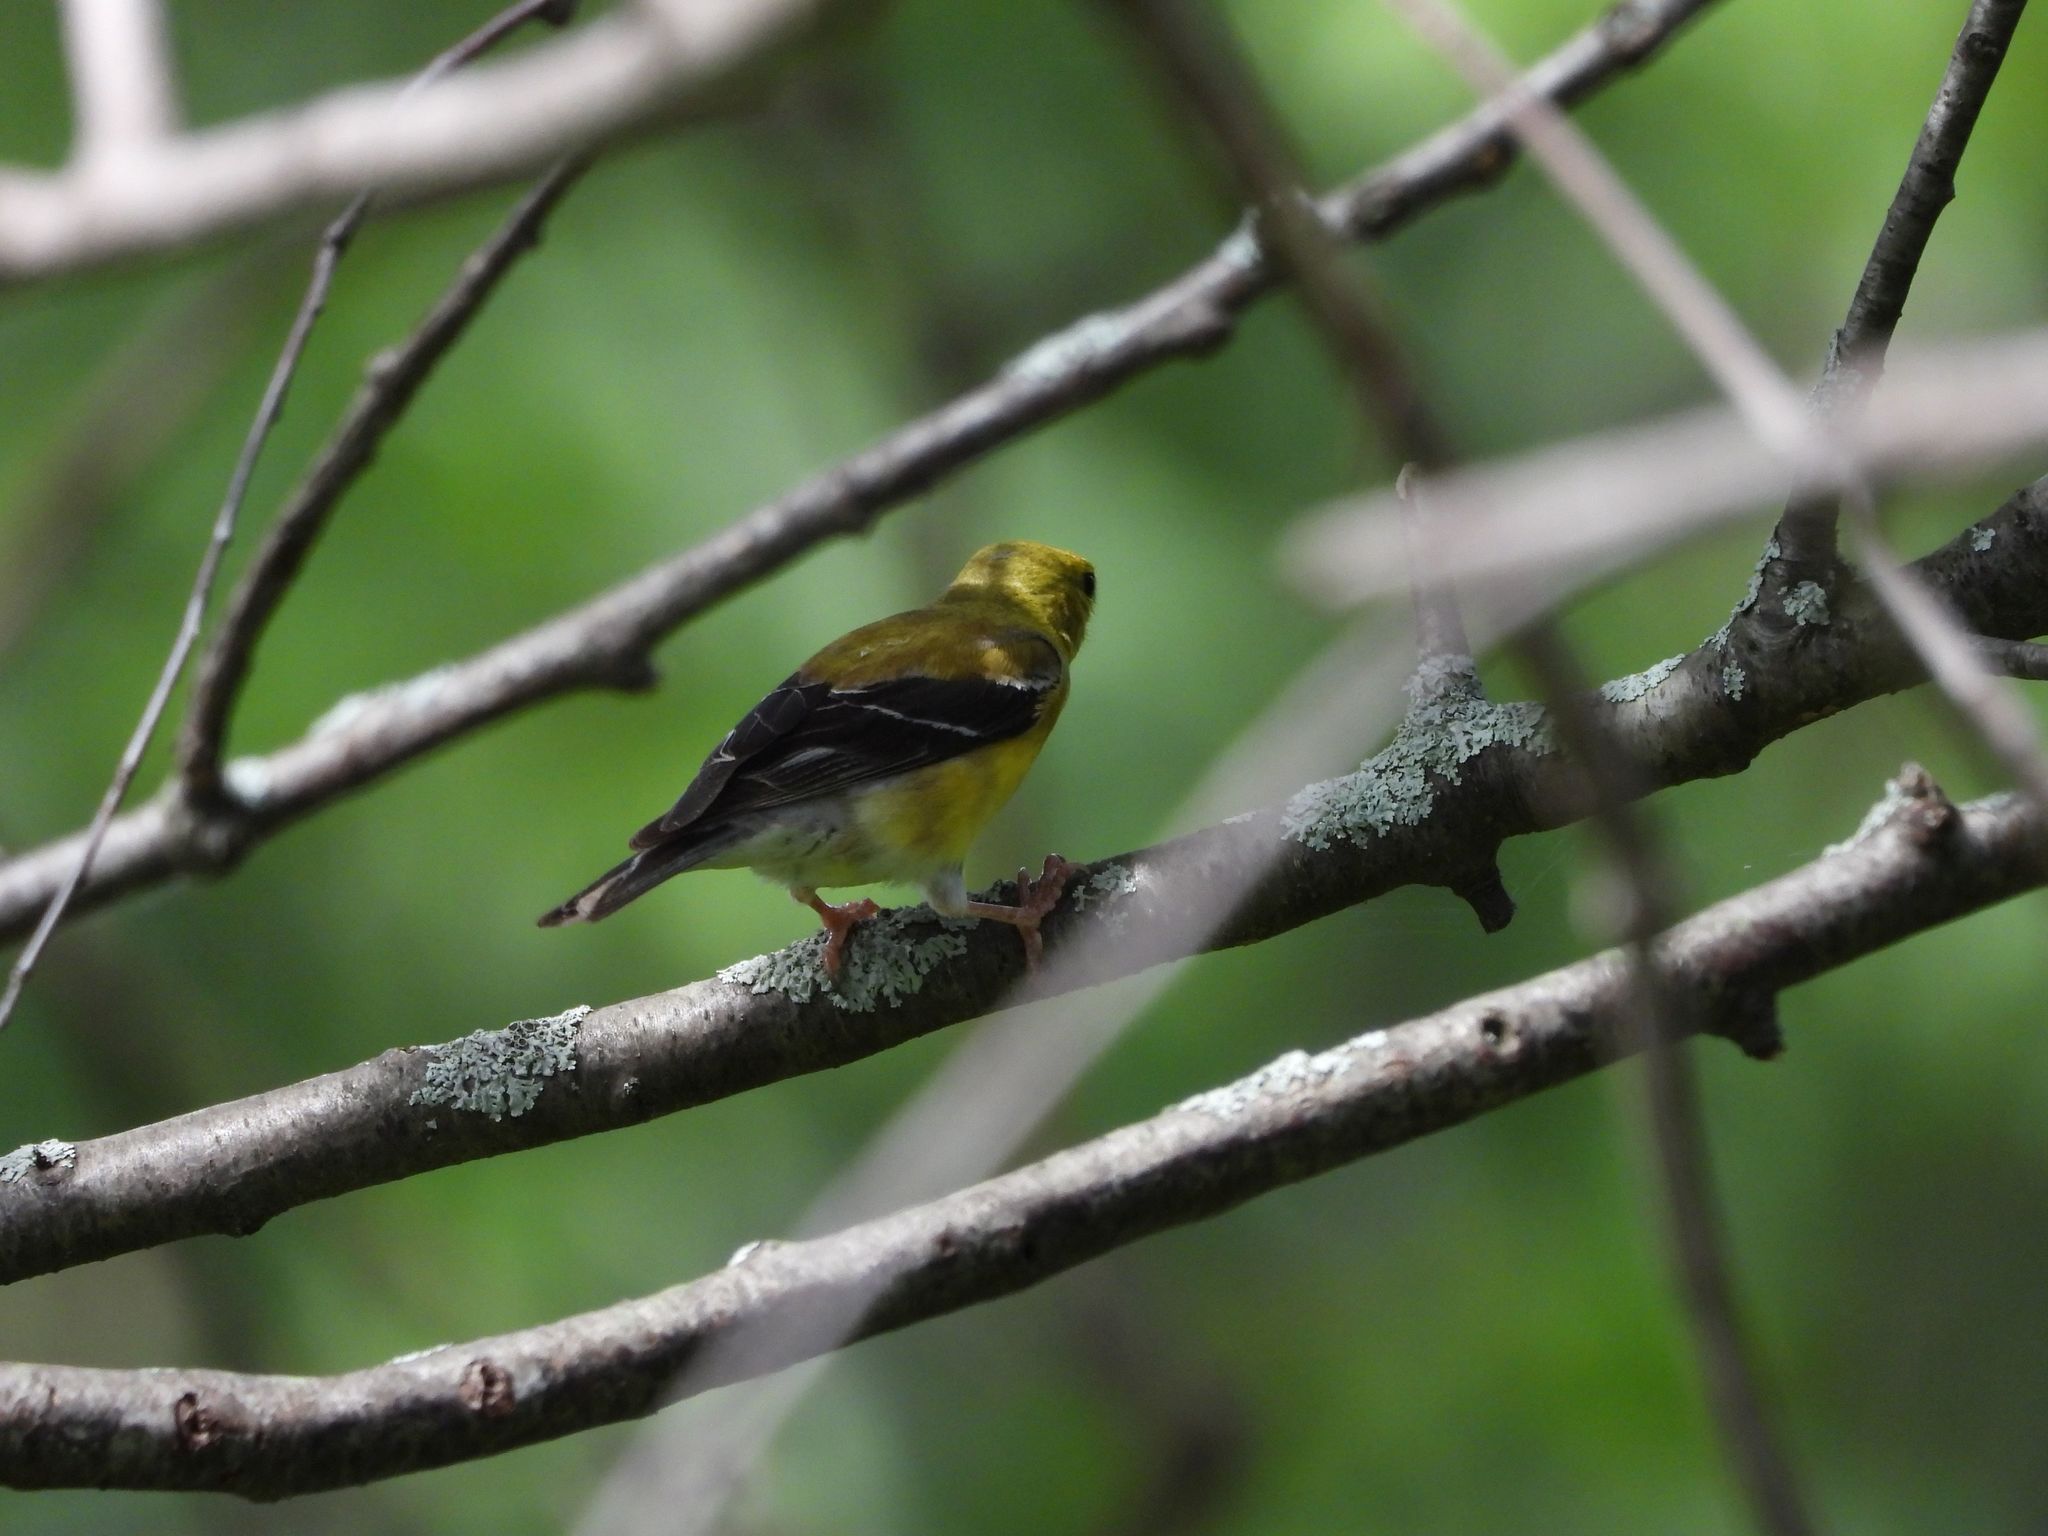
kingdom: Animalia
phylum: Chordata
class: Aves
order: Passeriformes
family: Fringillidae
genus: Spinus
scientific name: Spinus tristis
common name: American goldfinch
